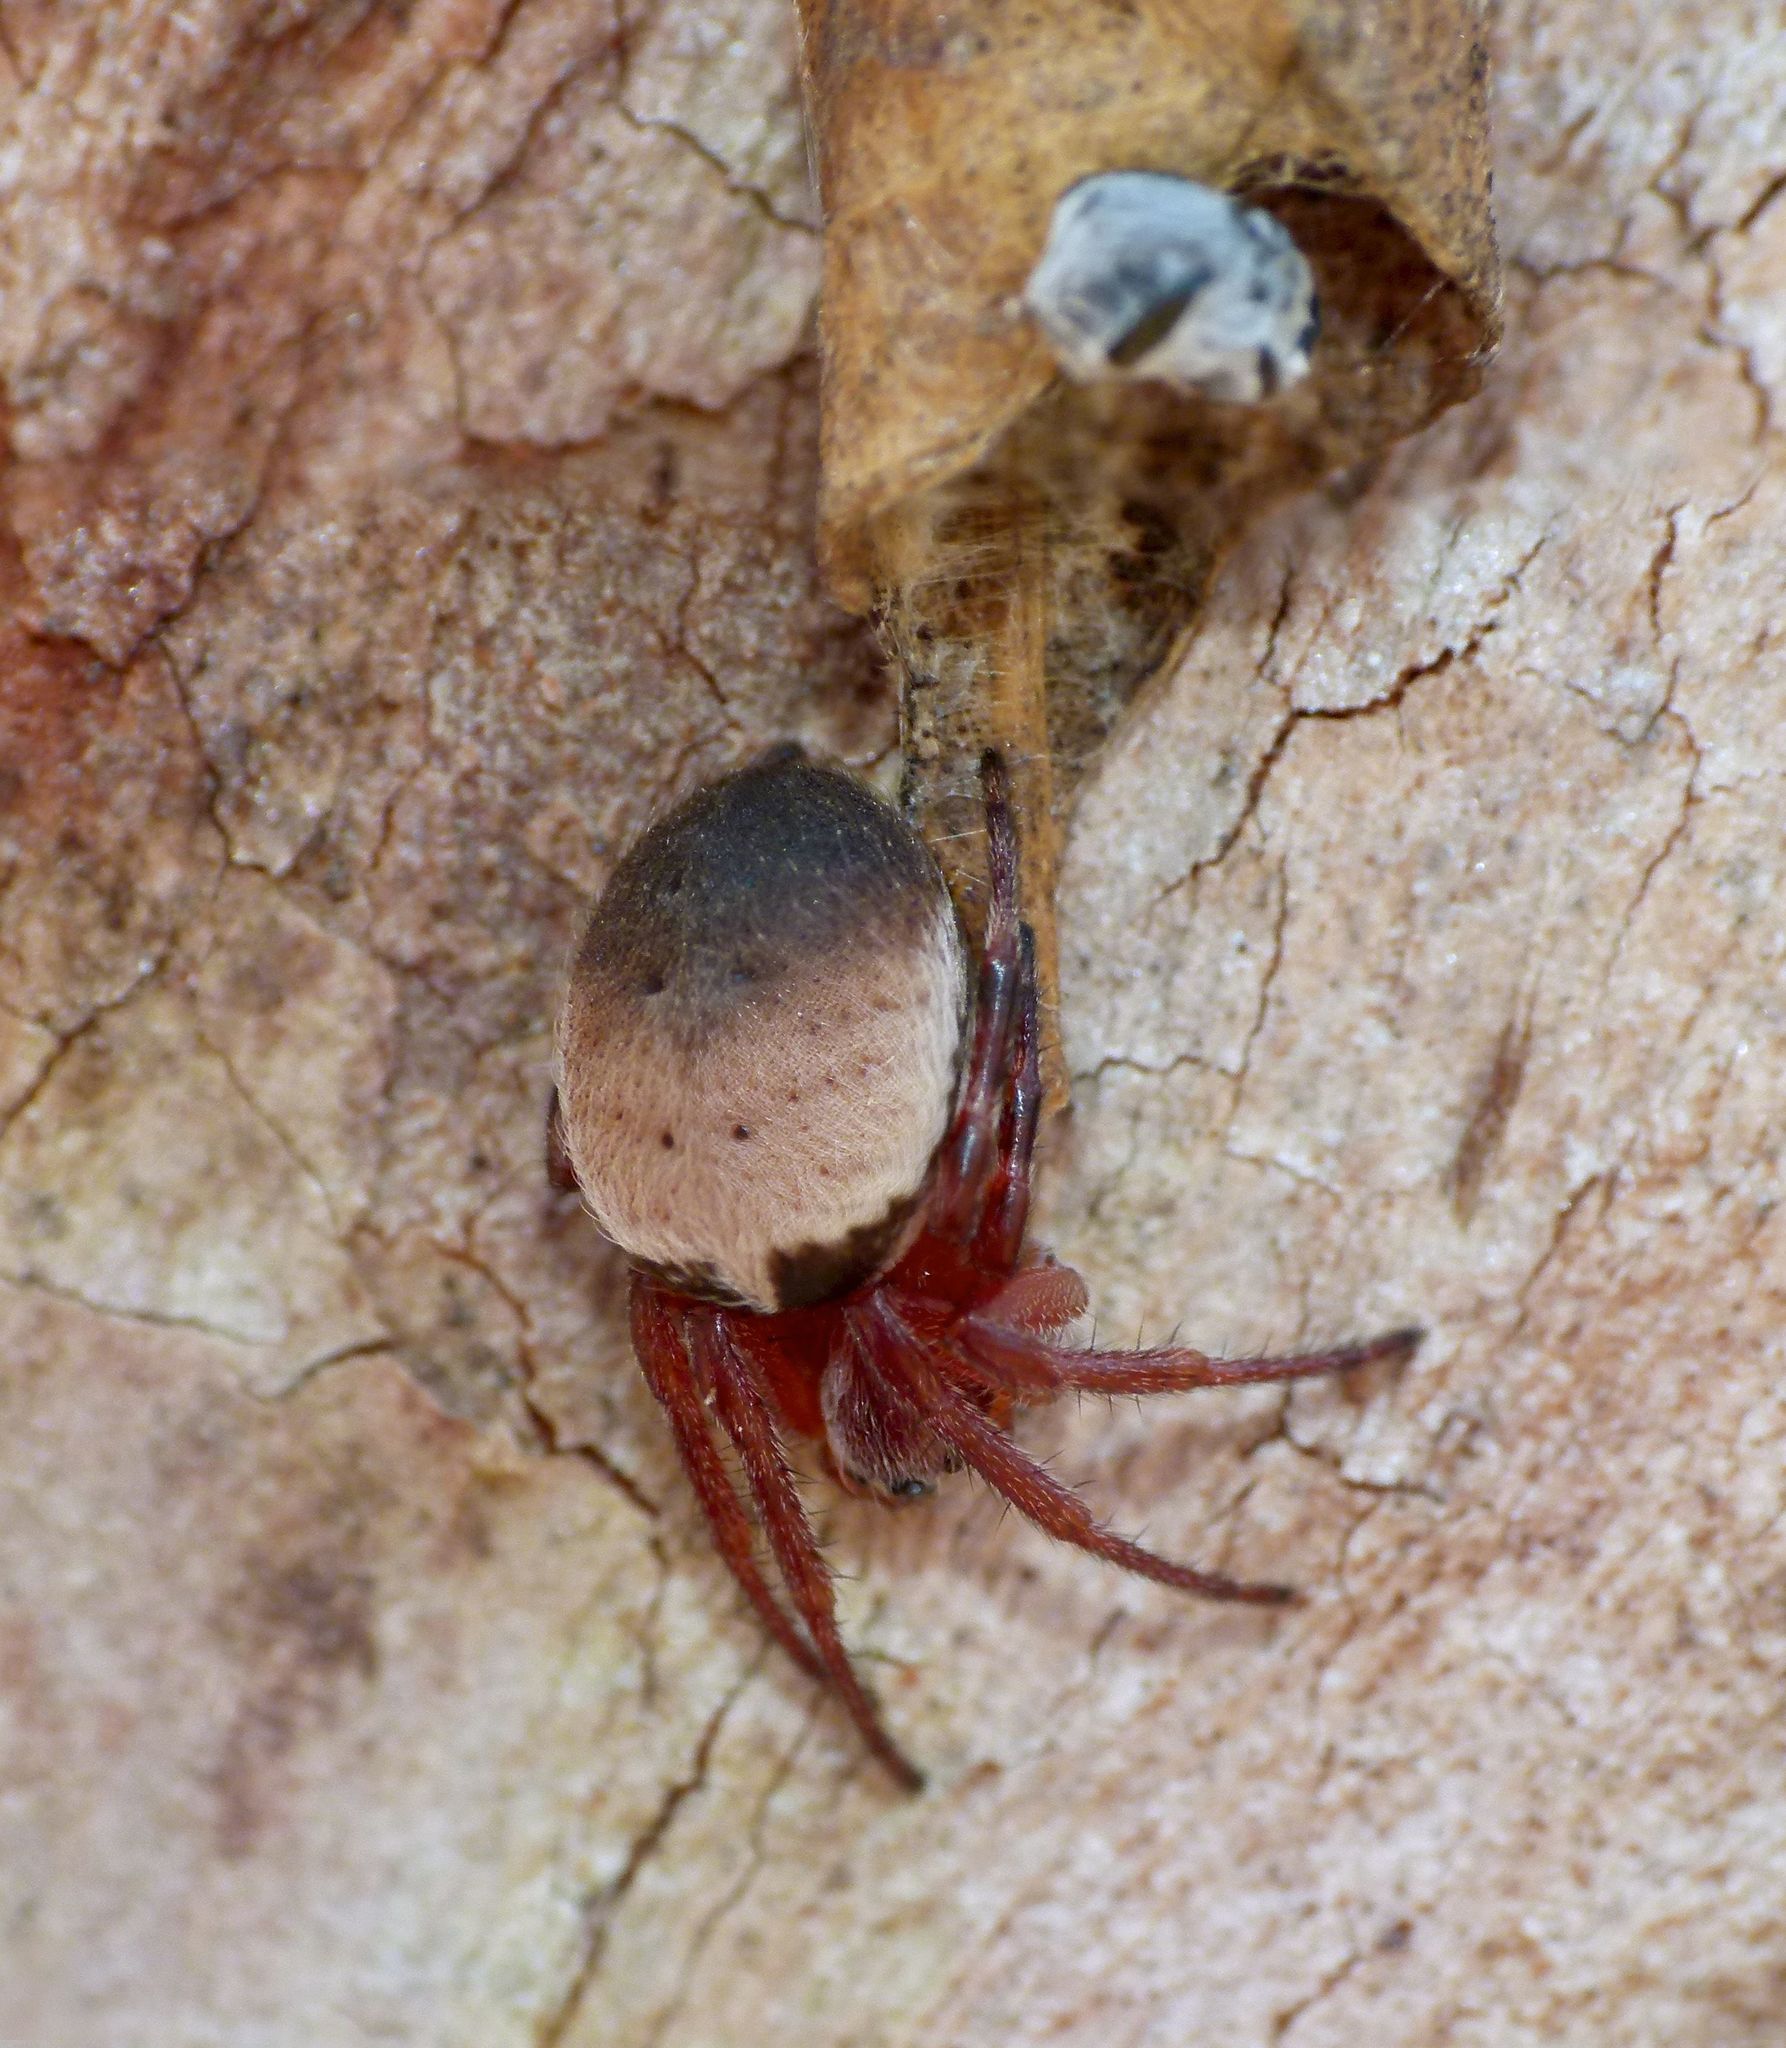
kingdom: Animalia
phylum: Arthropoda
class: Arachnida
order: Araneae
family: Araneidae
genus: Araneus
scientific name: Araneus dimidiatus
